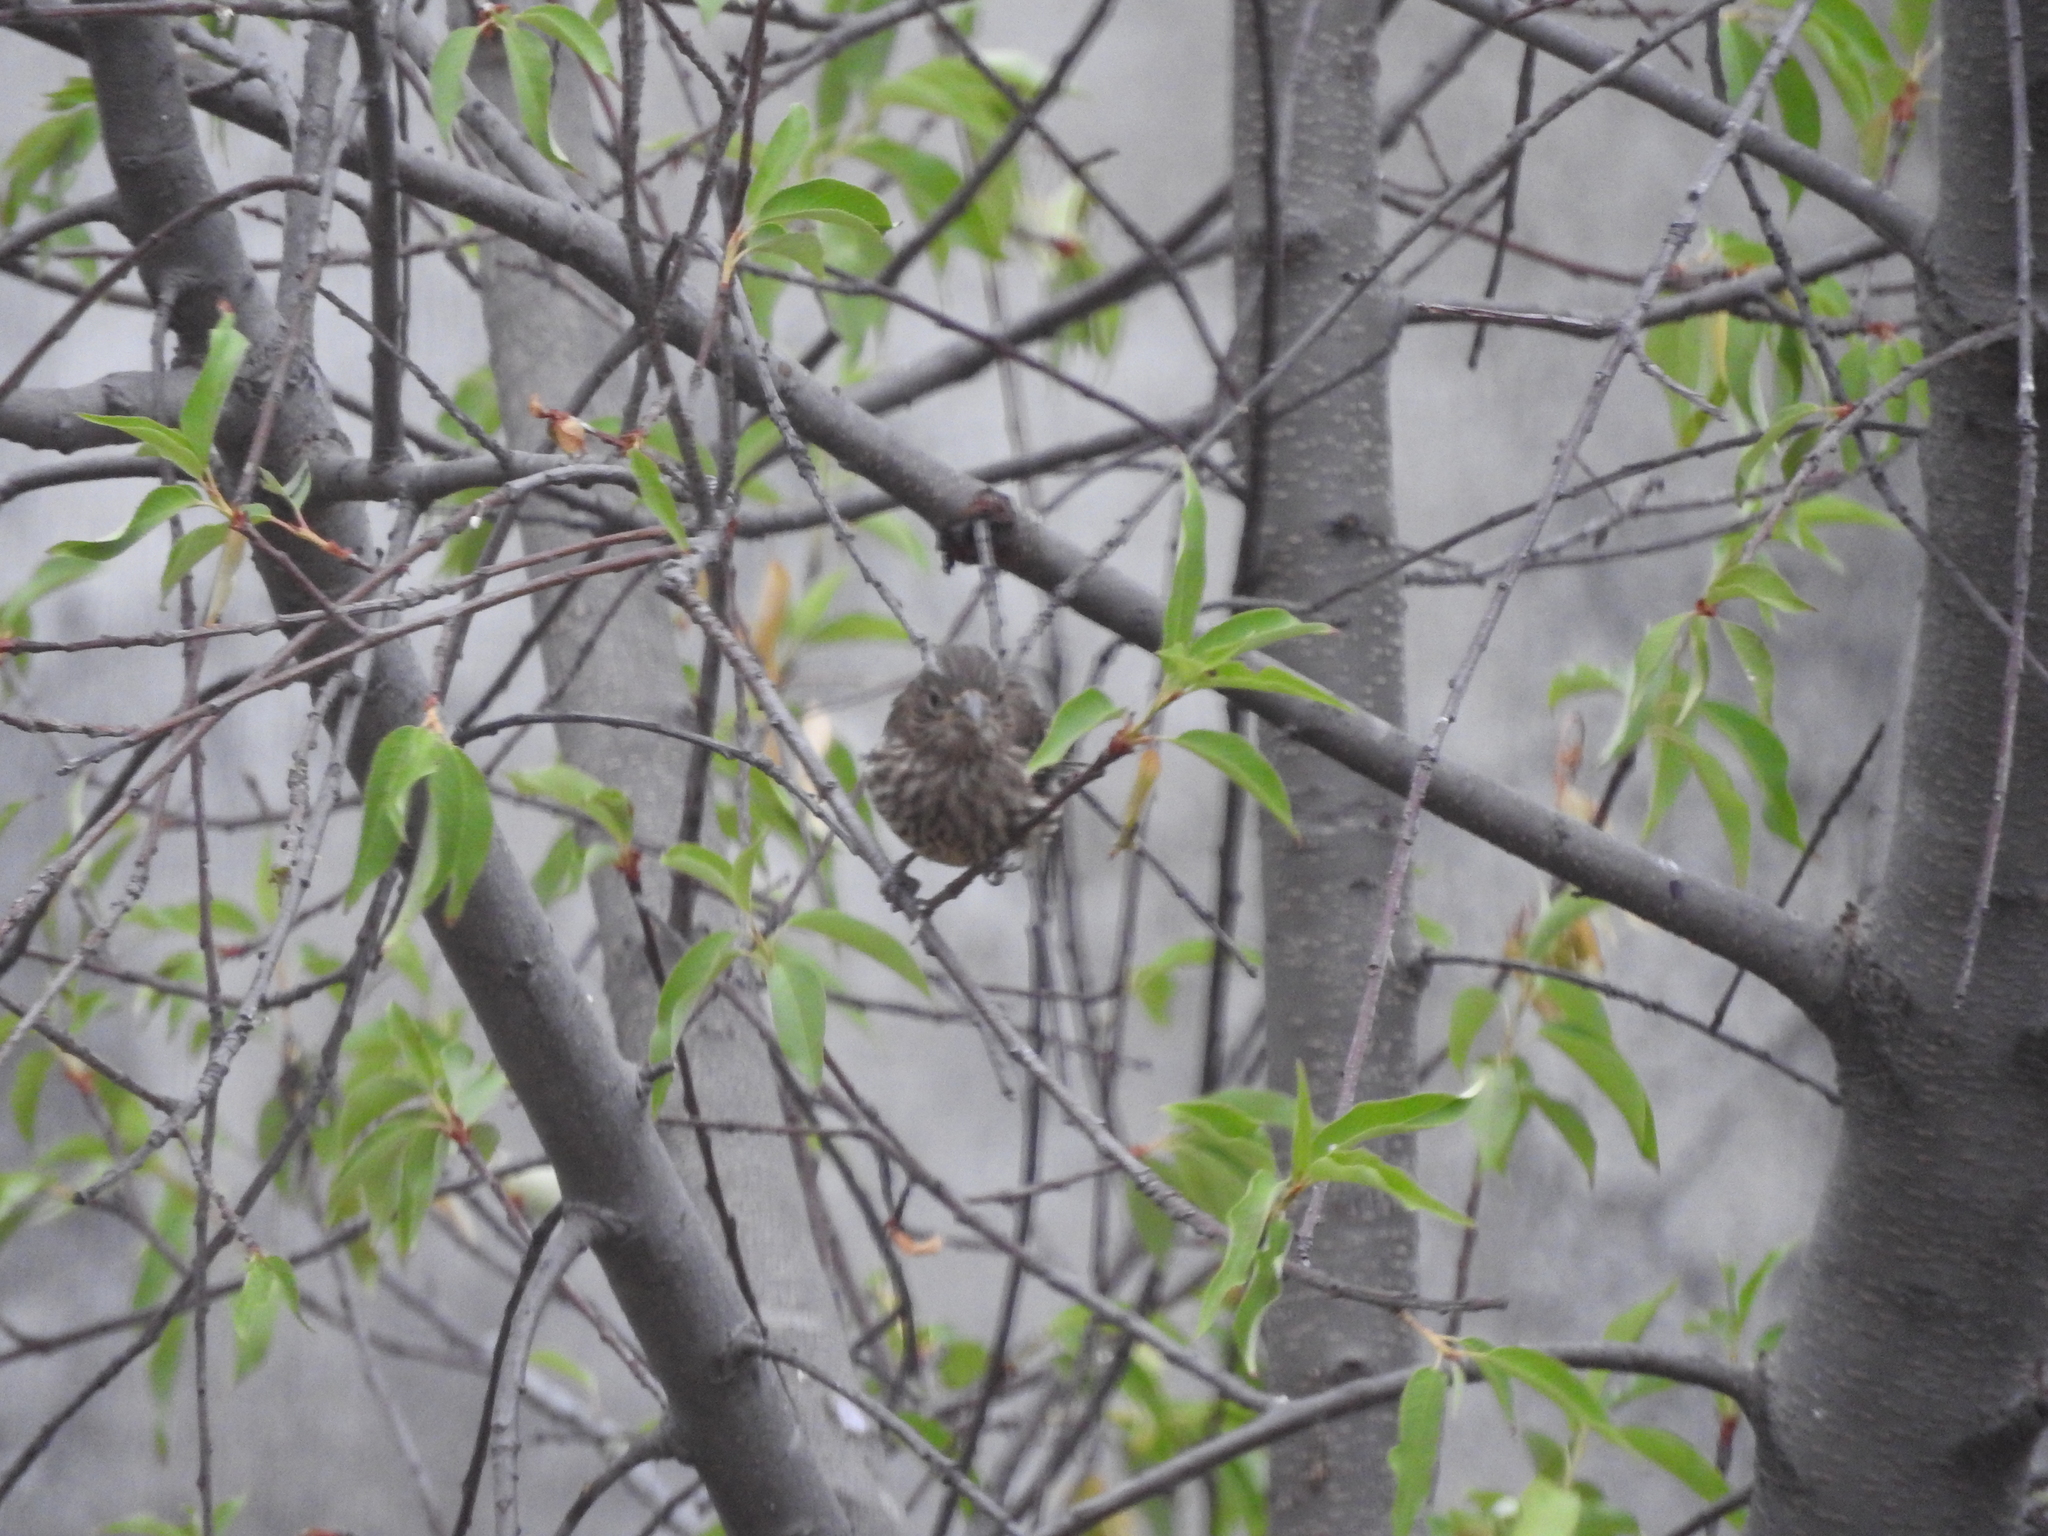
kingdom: Animalia
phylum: Chordata
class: Aves
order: Passeriformes
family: Fringillidae
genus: Haemorhous
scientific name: Haemorhous mexicanus
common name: House finch
